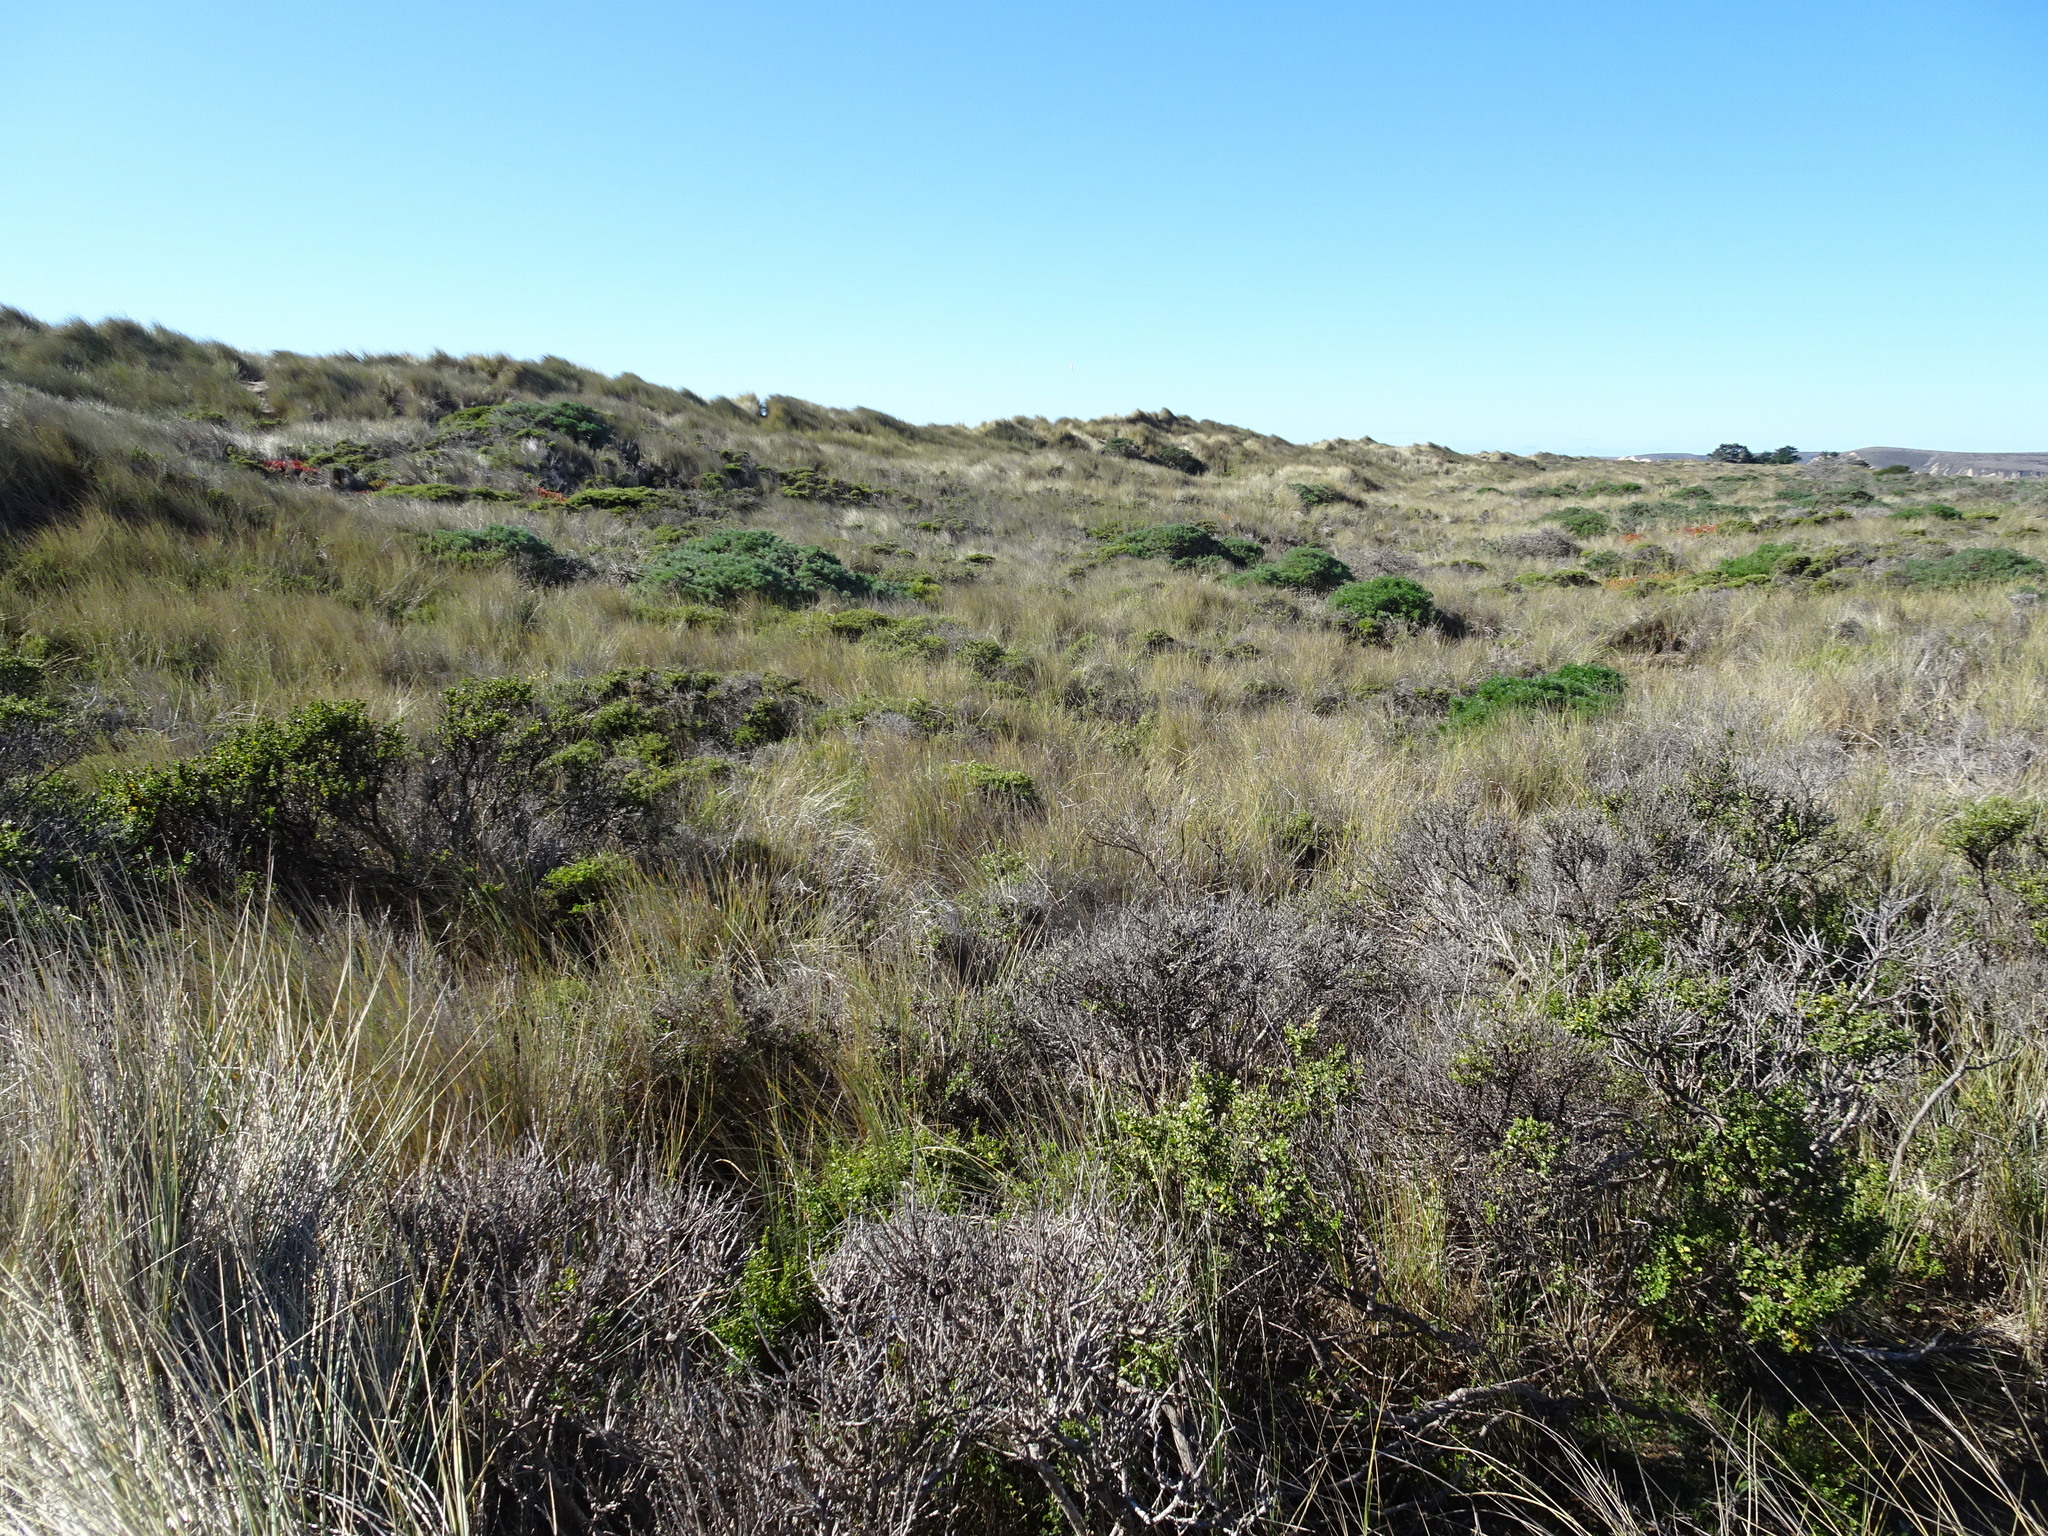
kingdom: Plantae
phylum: Tracheophyta
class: Liliopsida
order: Poales
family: Poaceae
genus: Calamagrostis
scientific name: Calamagrostis arenaria
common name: European beachgrass
